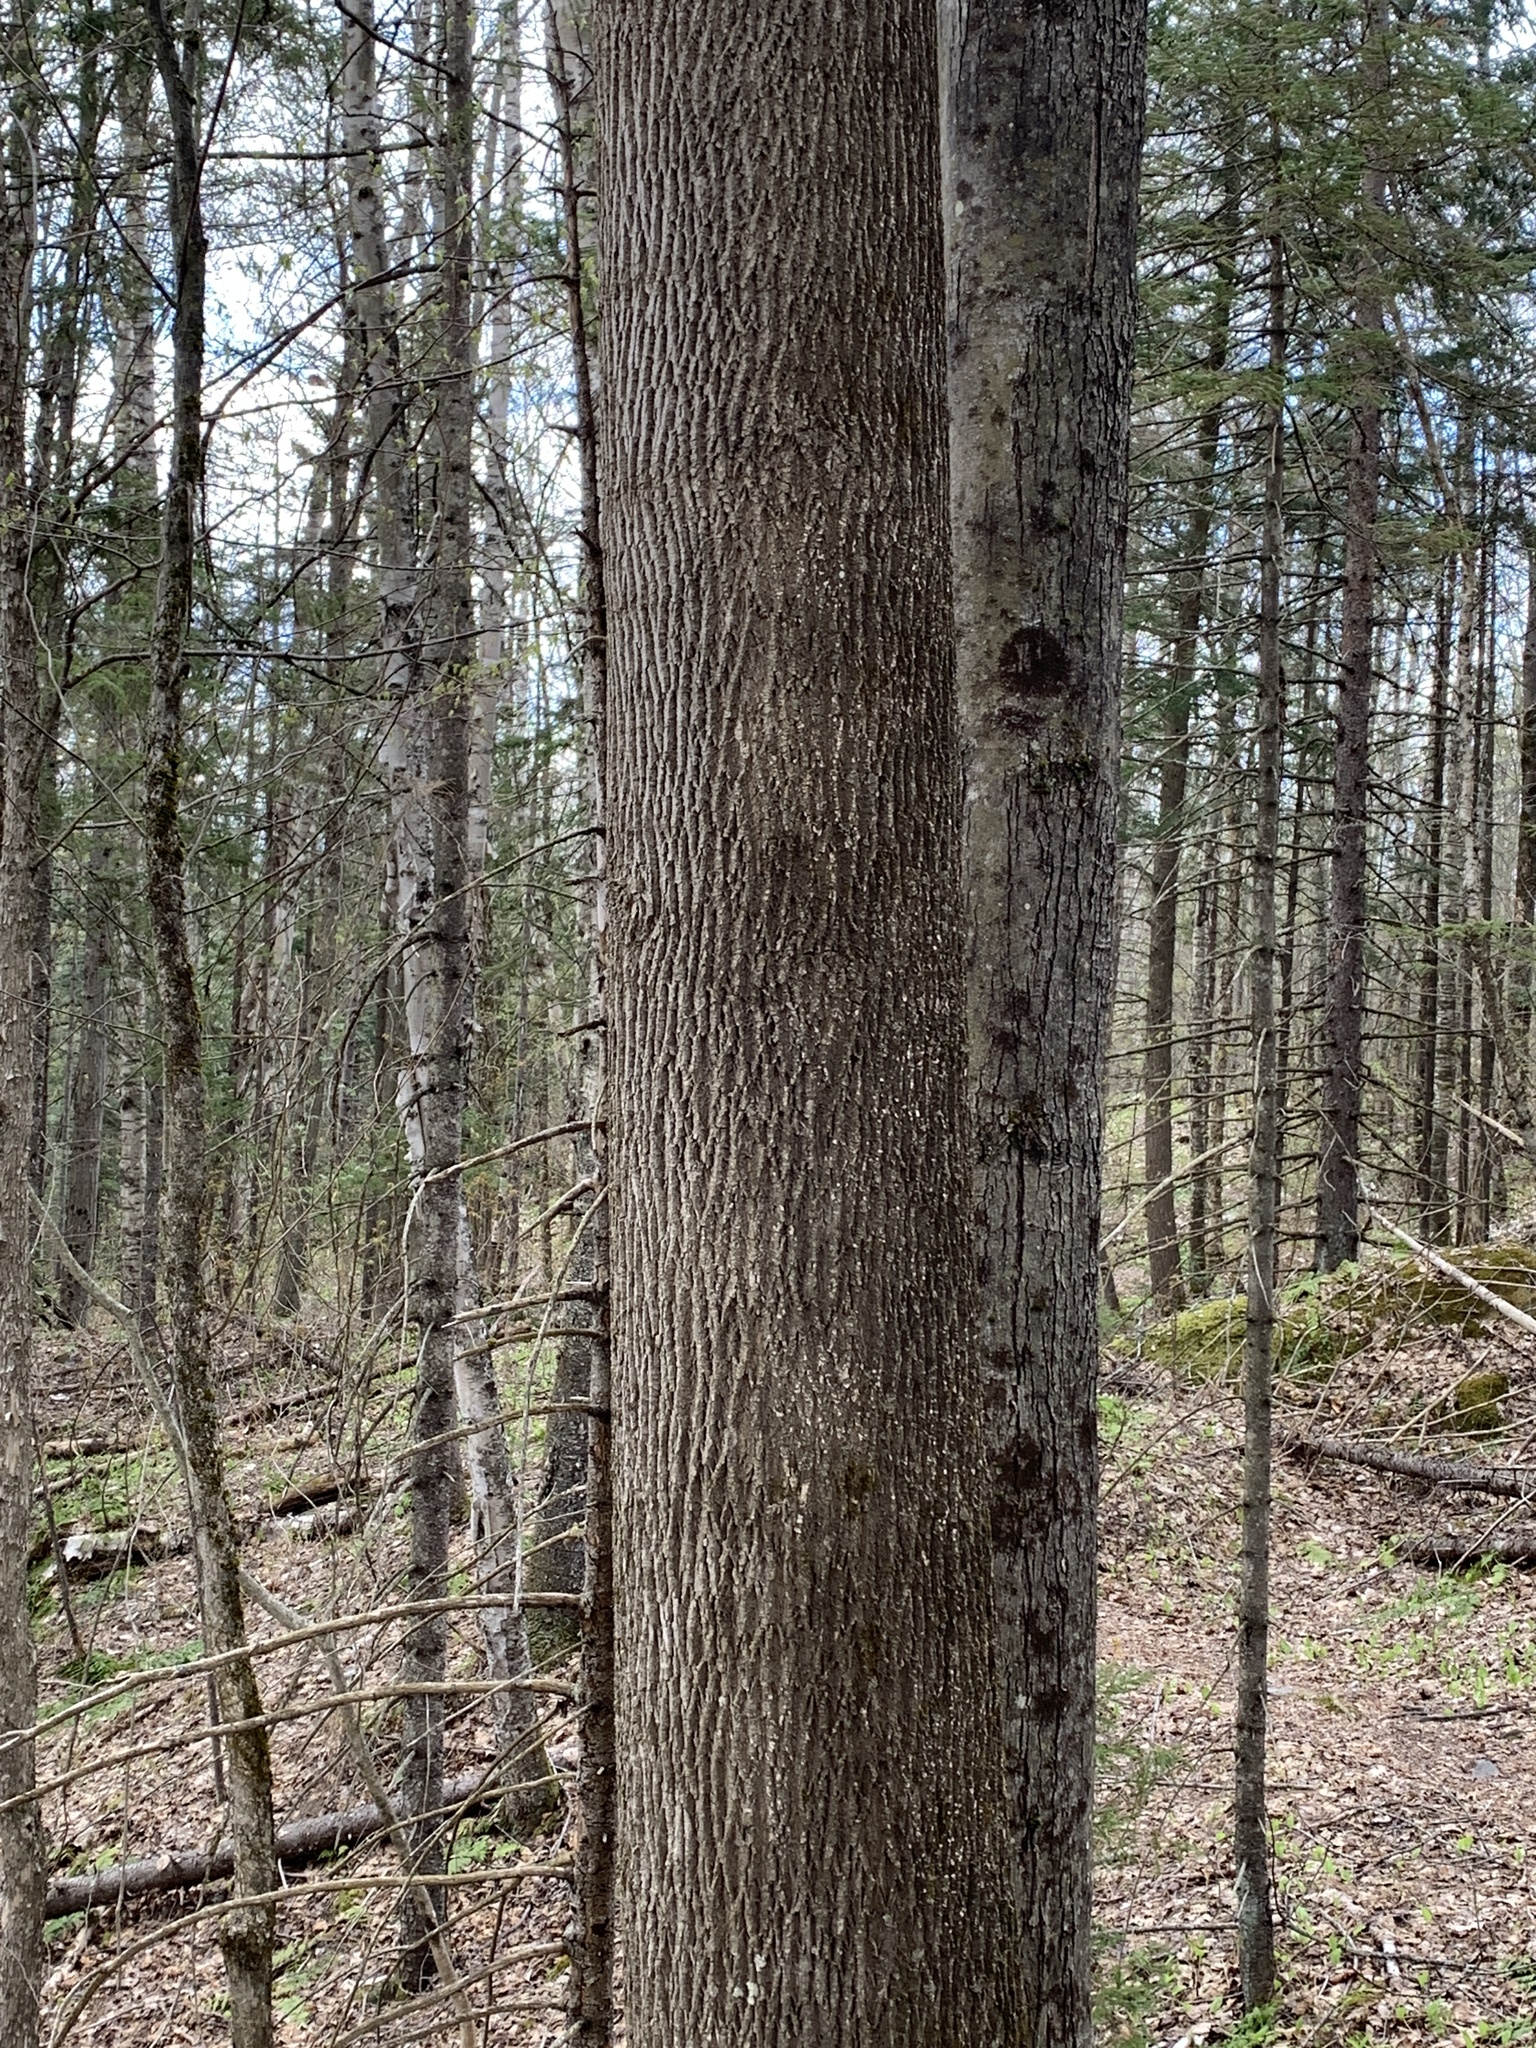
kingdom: Plantae
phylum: Tracheophyta
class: Magnoliopsida
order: Lamiales
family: Oleaceae
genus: Fraxinus
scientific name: Fraxinus americana
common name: White ash
